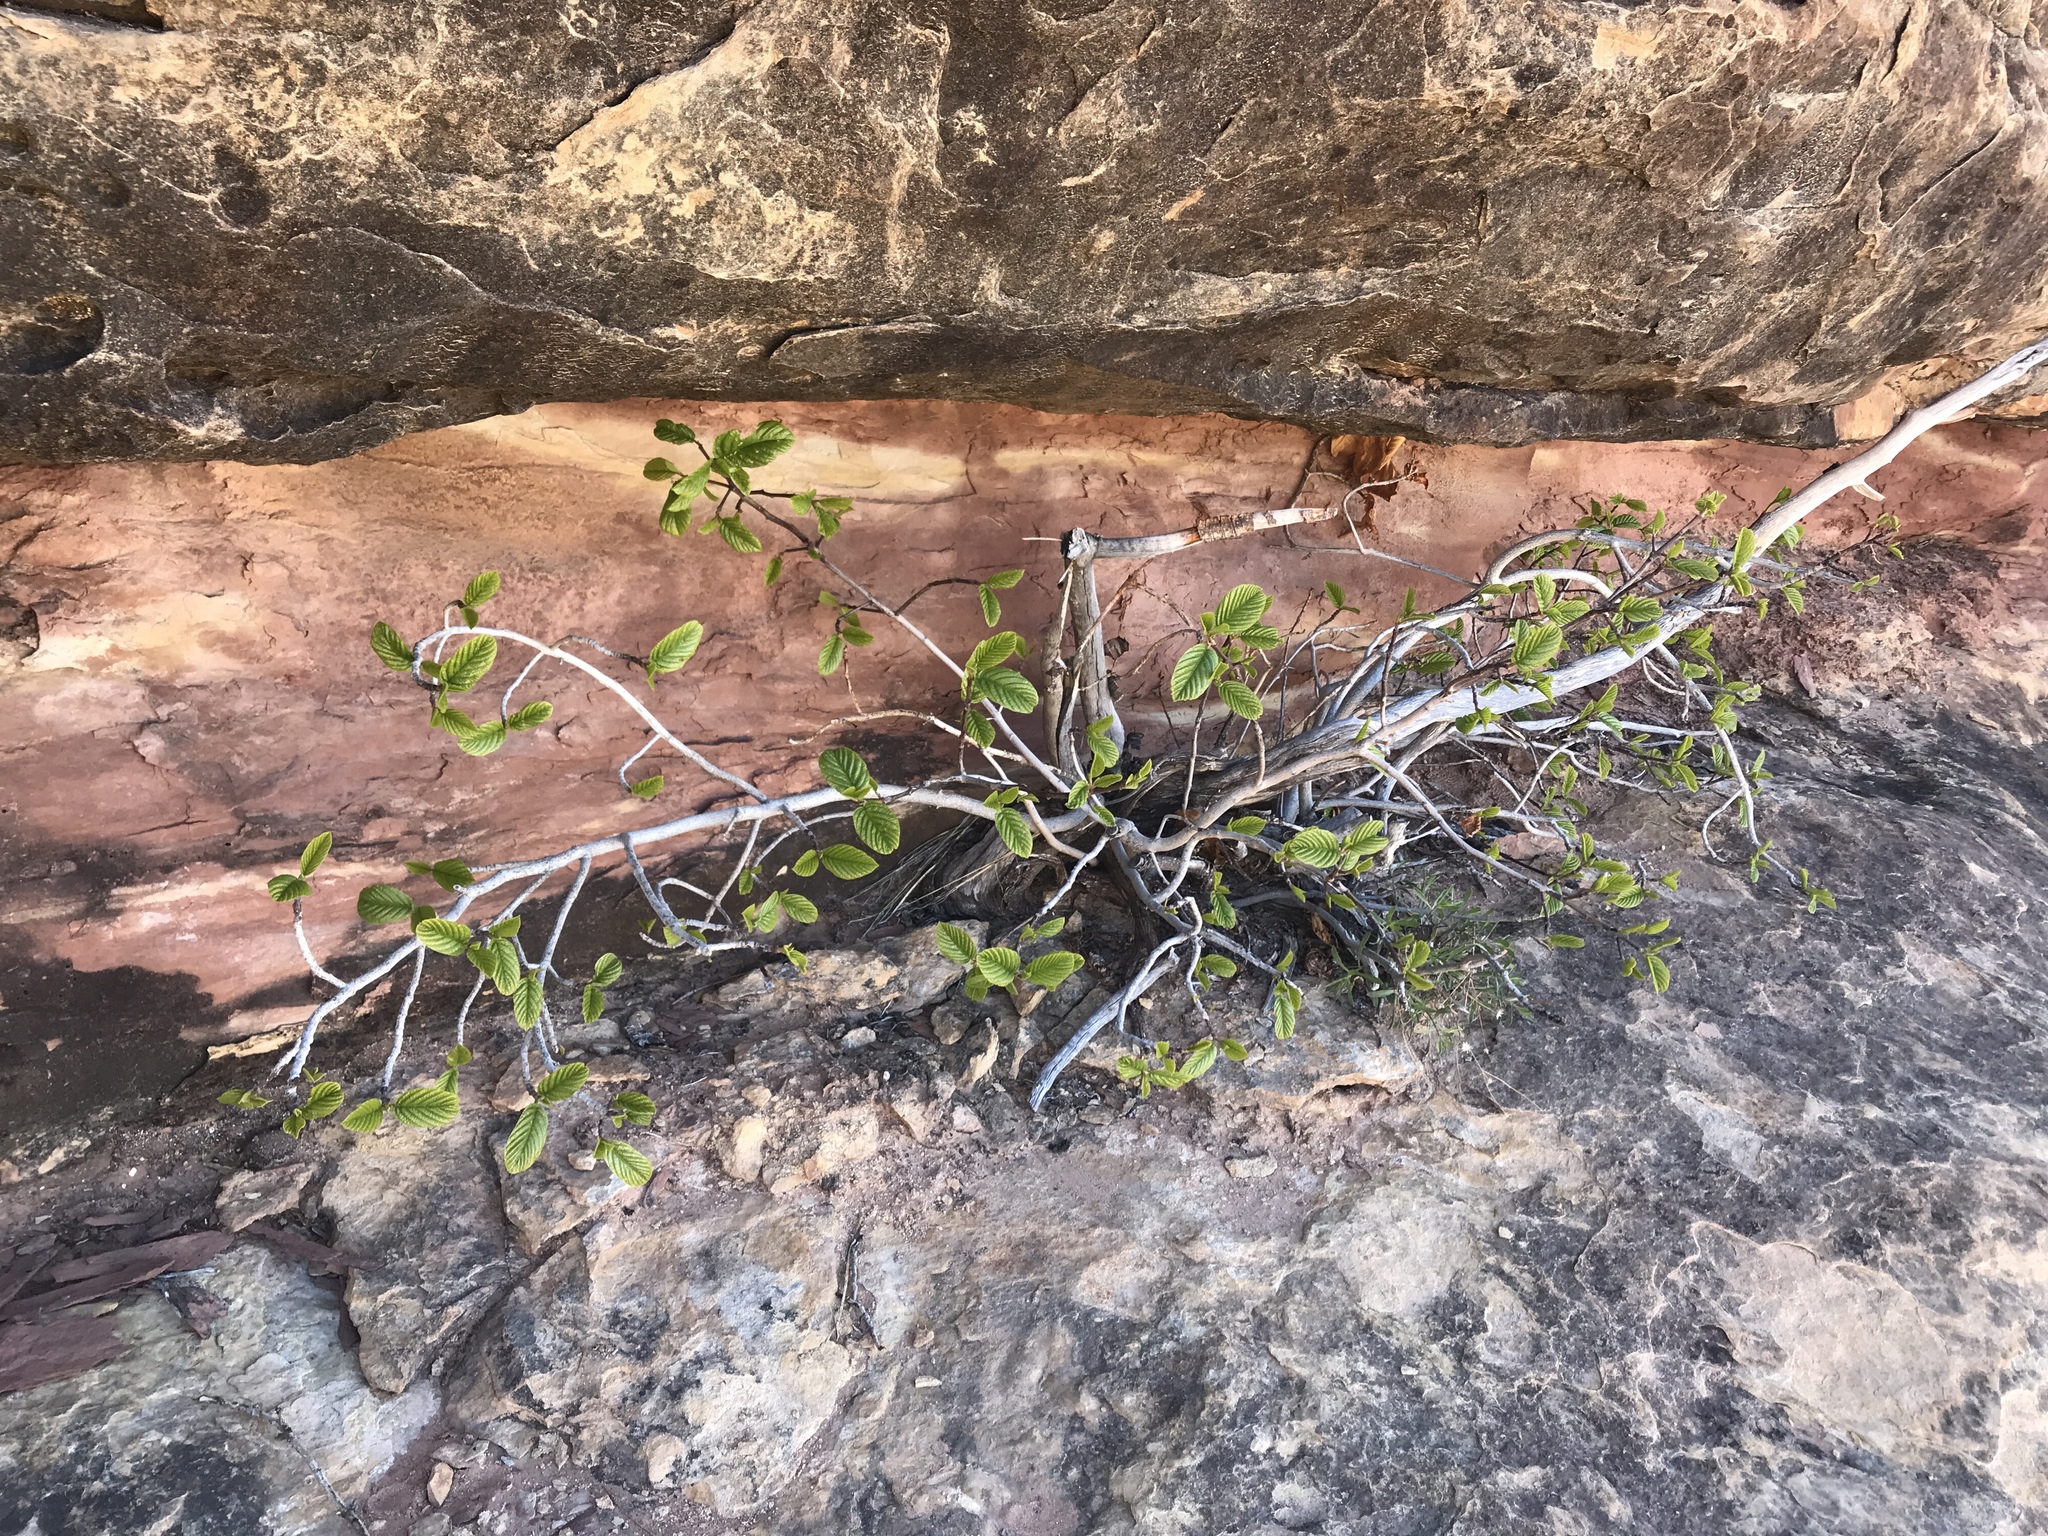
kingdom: Plantae
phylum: Tracheophyta
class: Magnoliopsida
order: Rosales
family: Rhamnaceae
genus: Frangula
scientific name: Frangula betulifolia
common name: Birch-leaf buckthorn
